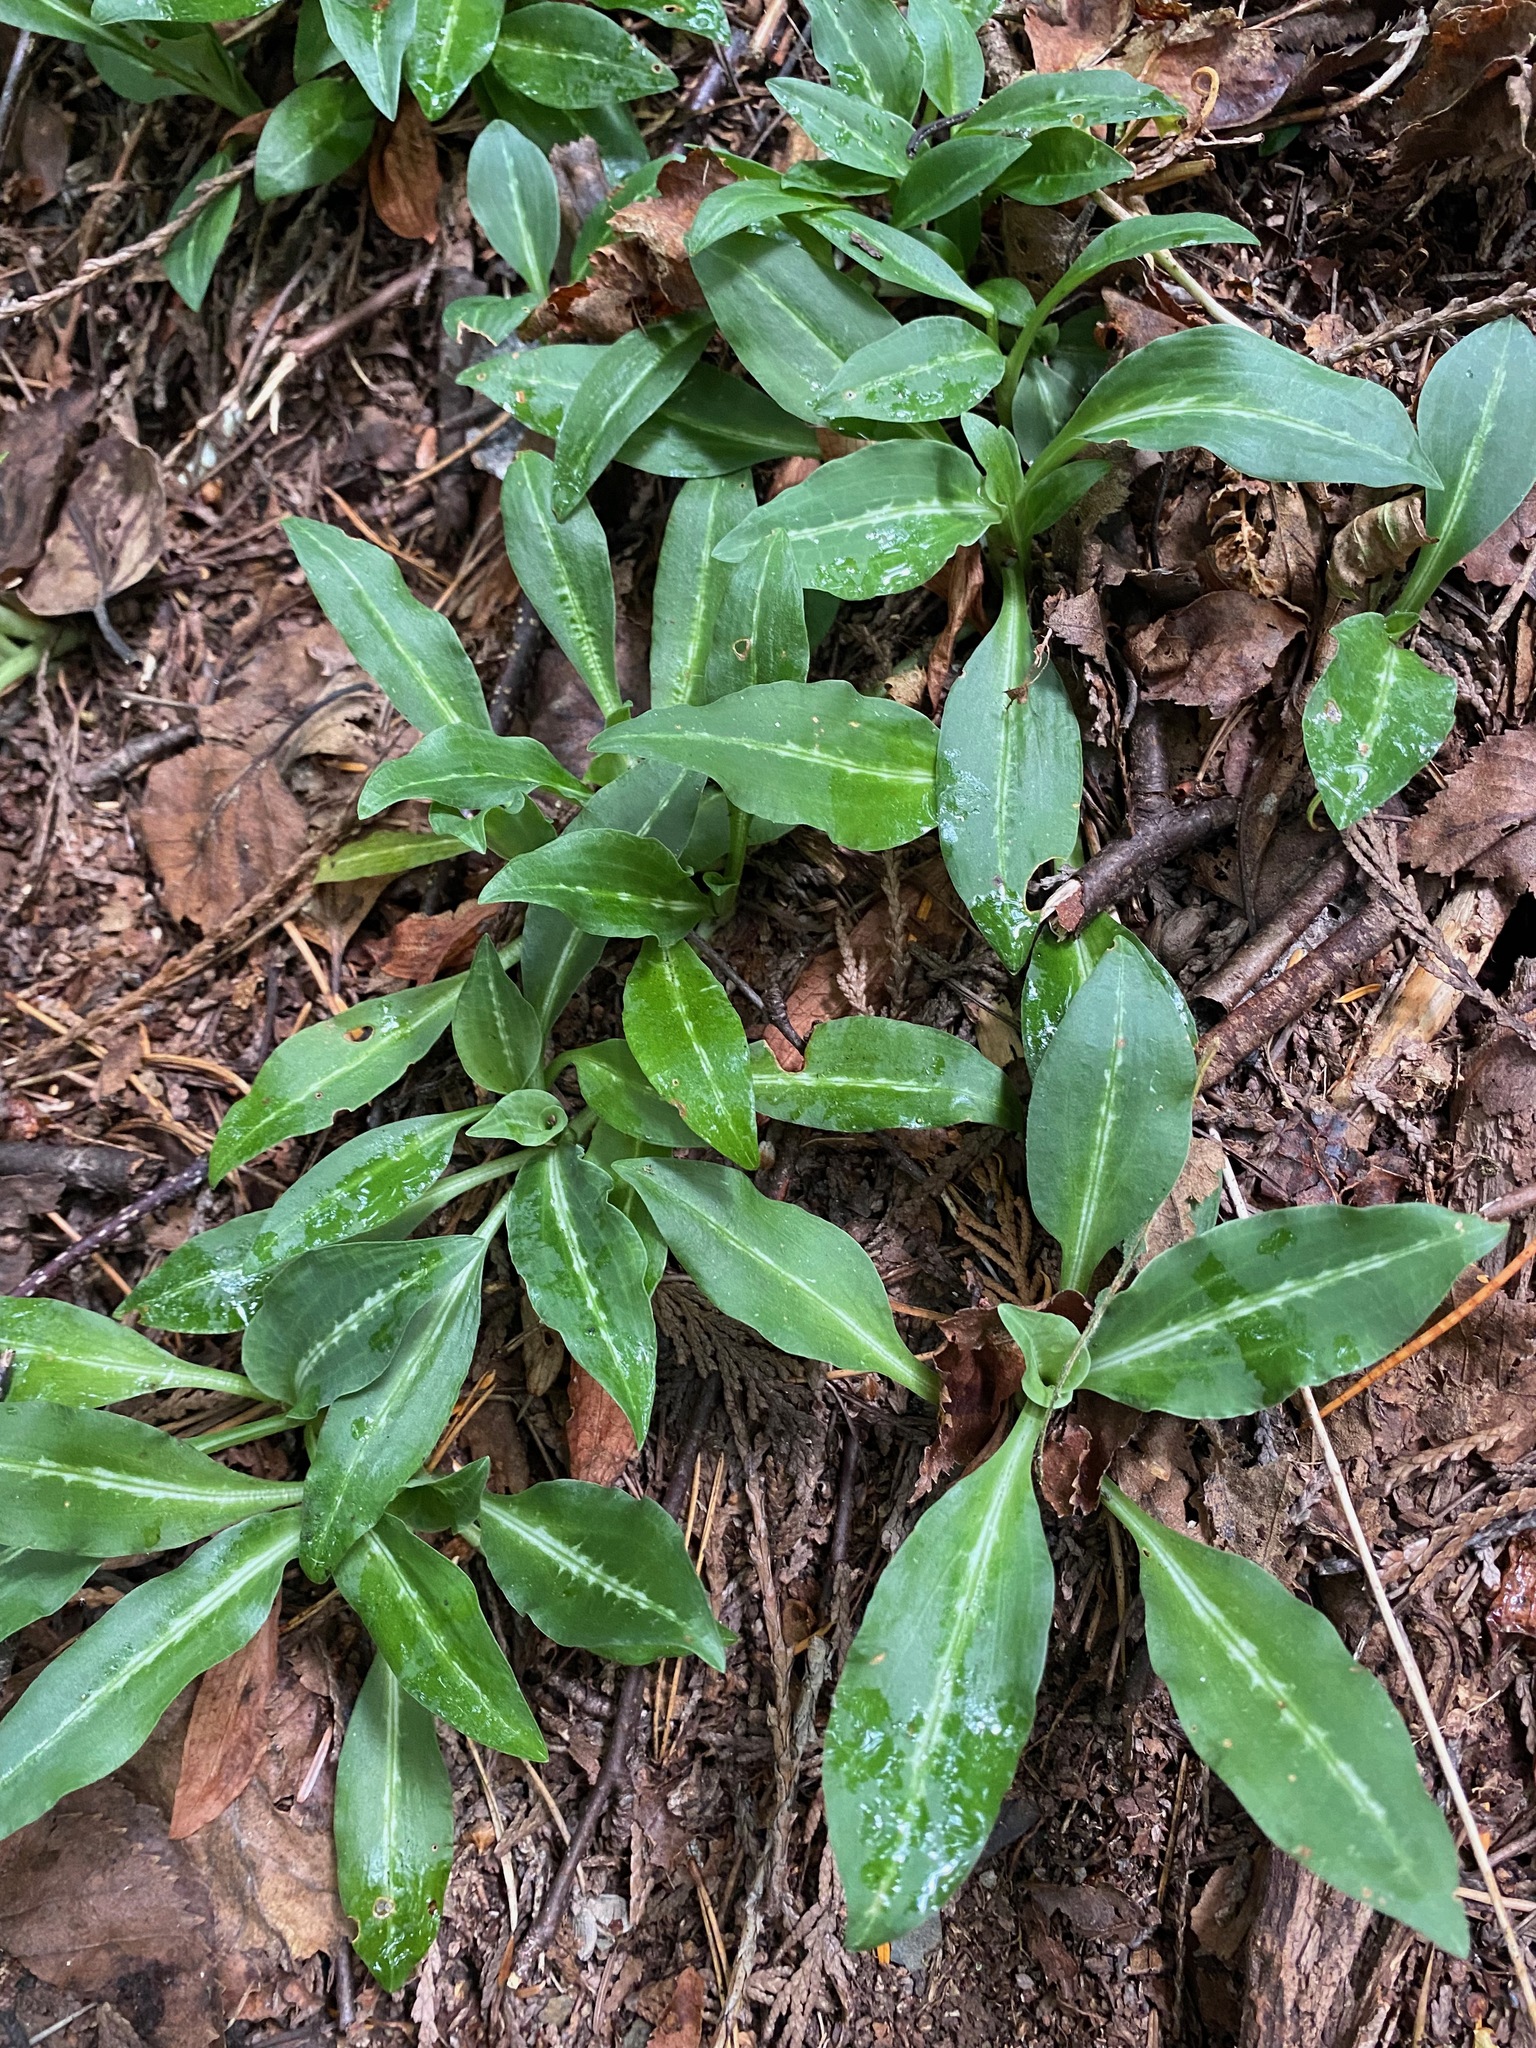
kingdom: Plantae
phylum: Tracheophyta
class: Liliopsida
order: Asparagales
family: Orchidaceae
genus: Goodyera
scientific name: Goodyera oblongifolia
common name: Giant rattlesnake-plantain
